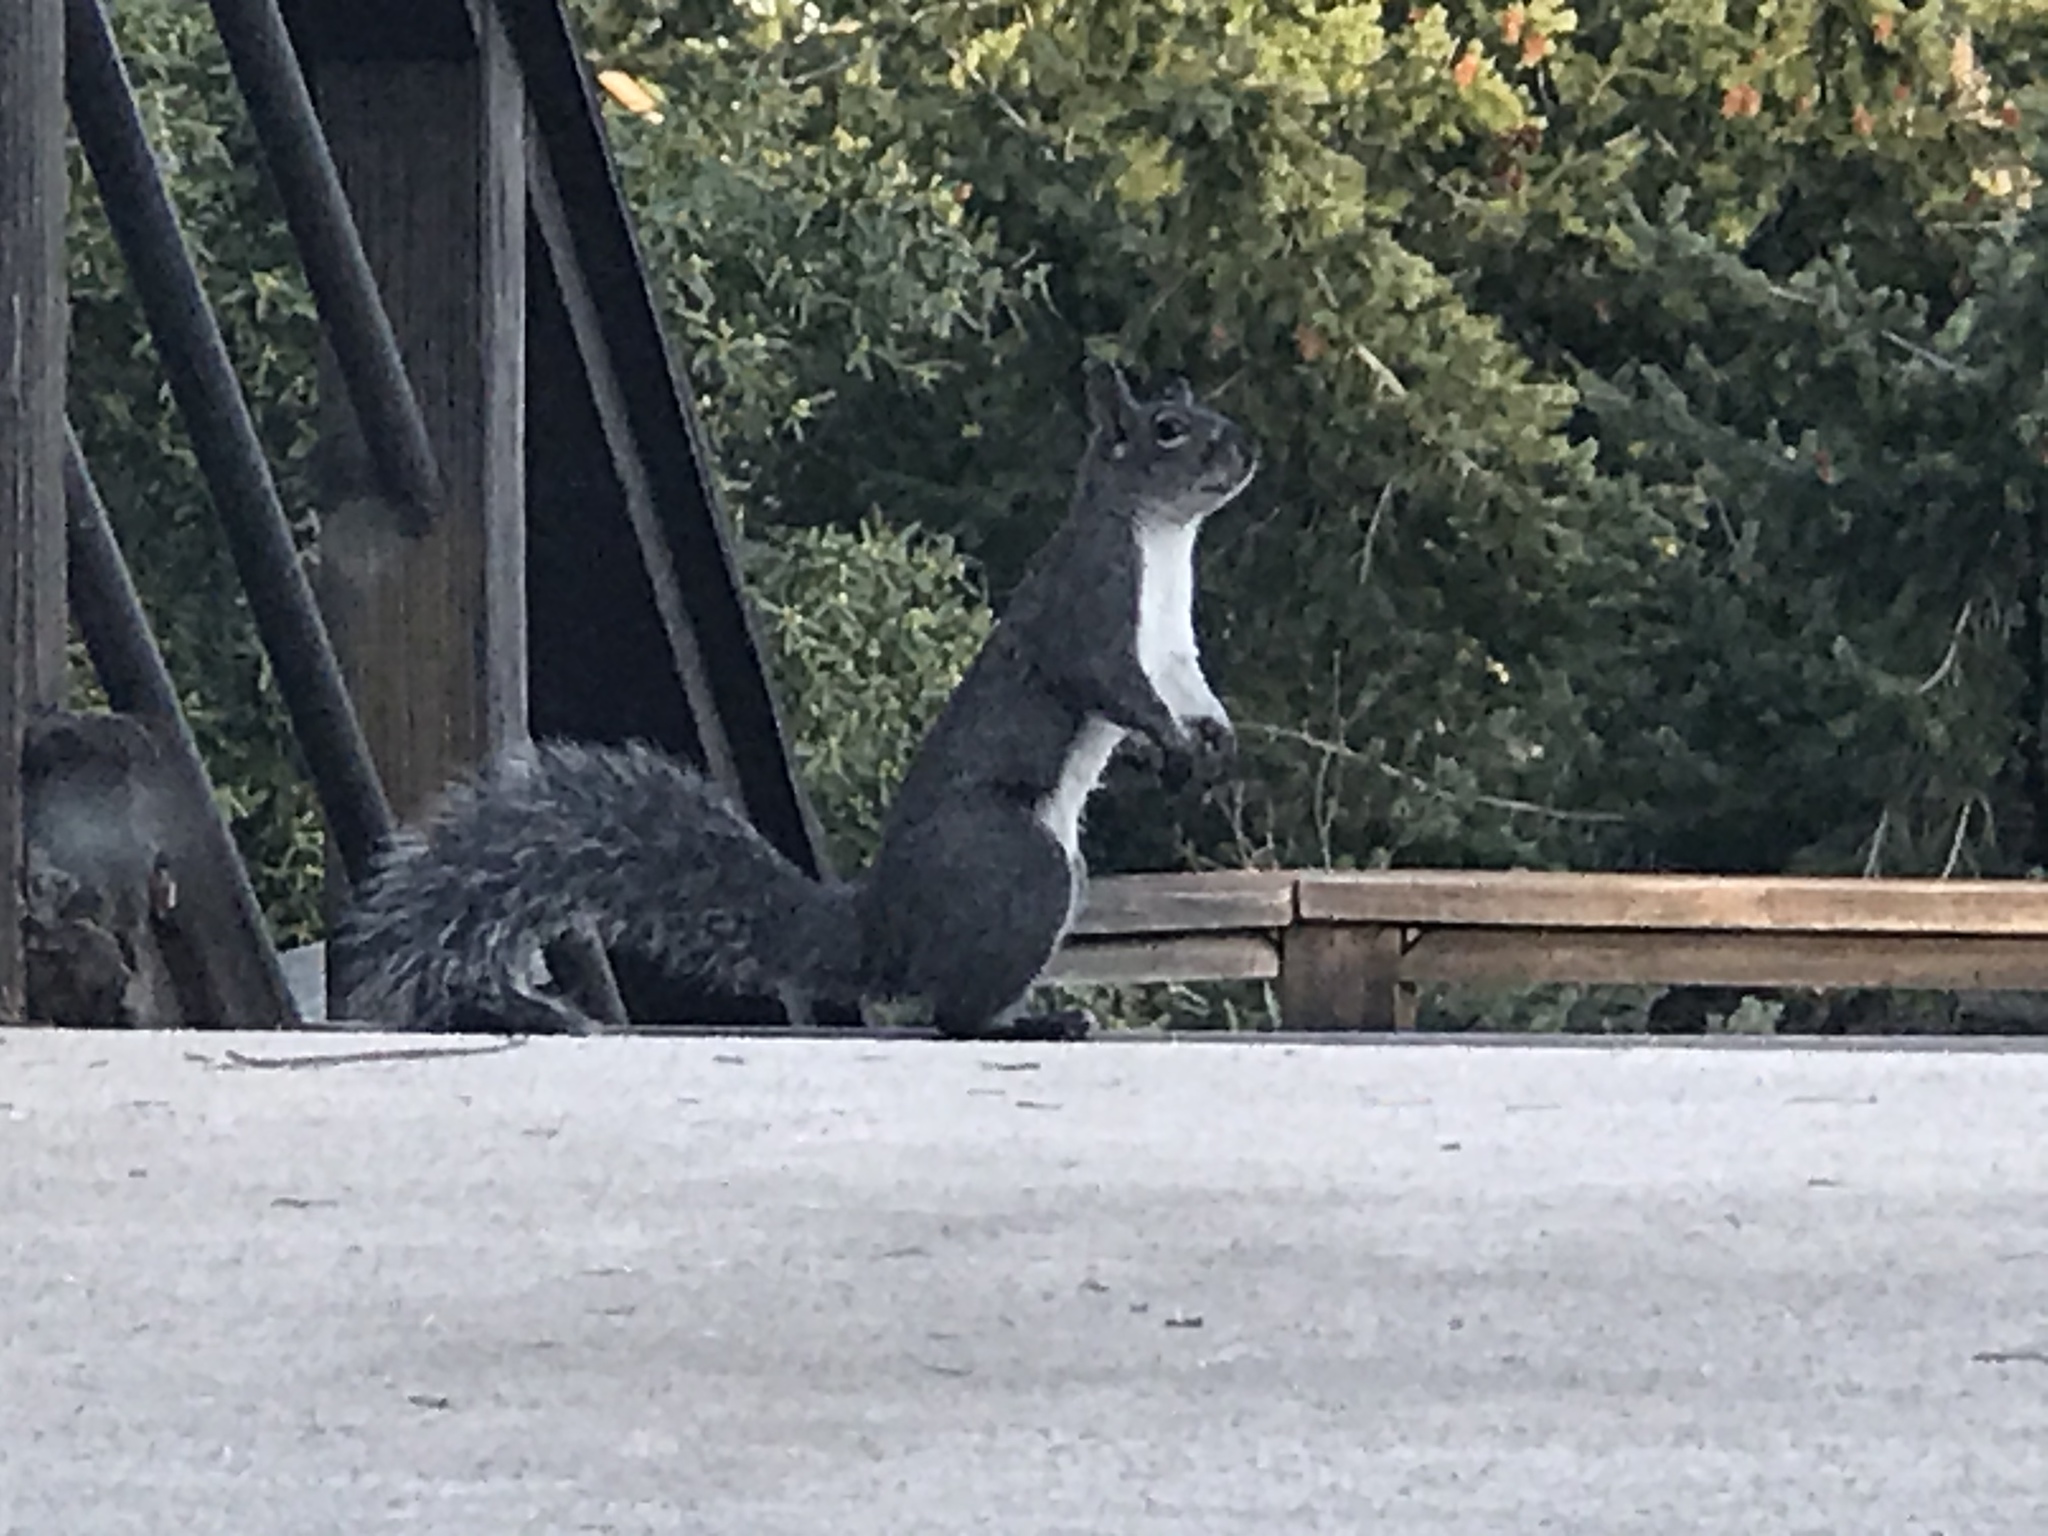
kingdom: Animalia
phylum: Chordata
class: Mammalia
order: Rodentia
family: Sciuridae
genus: Sciurus
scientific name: Sciurus griseus
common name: Western gray squirrel
